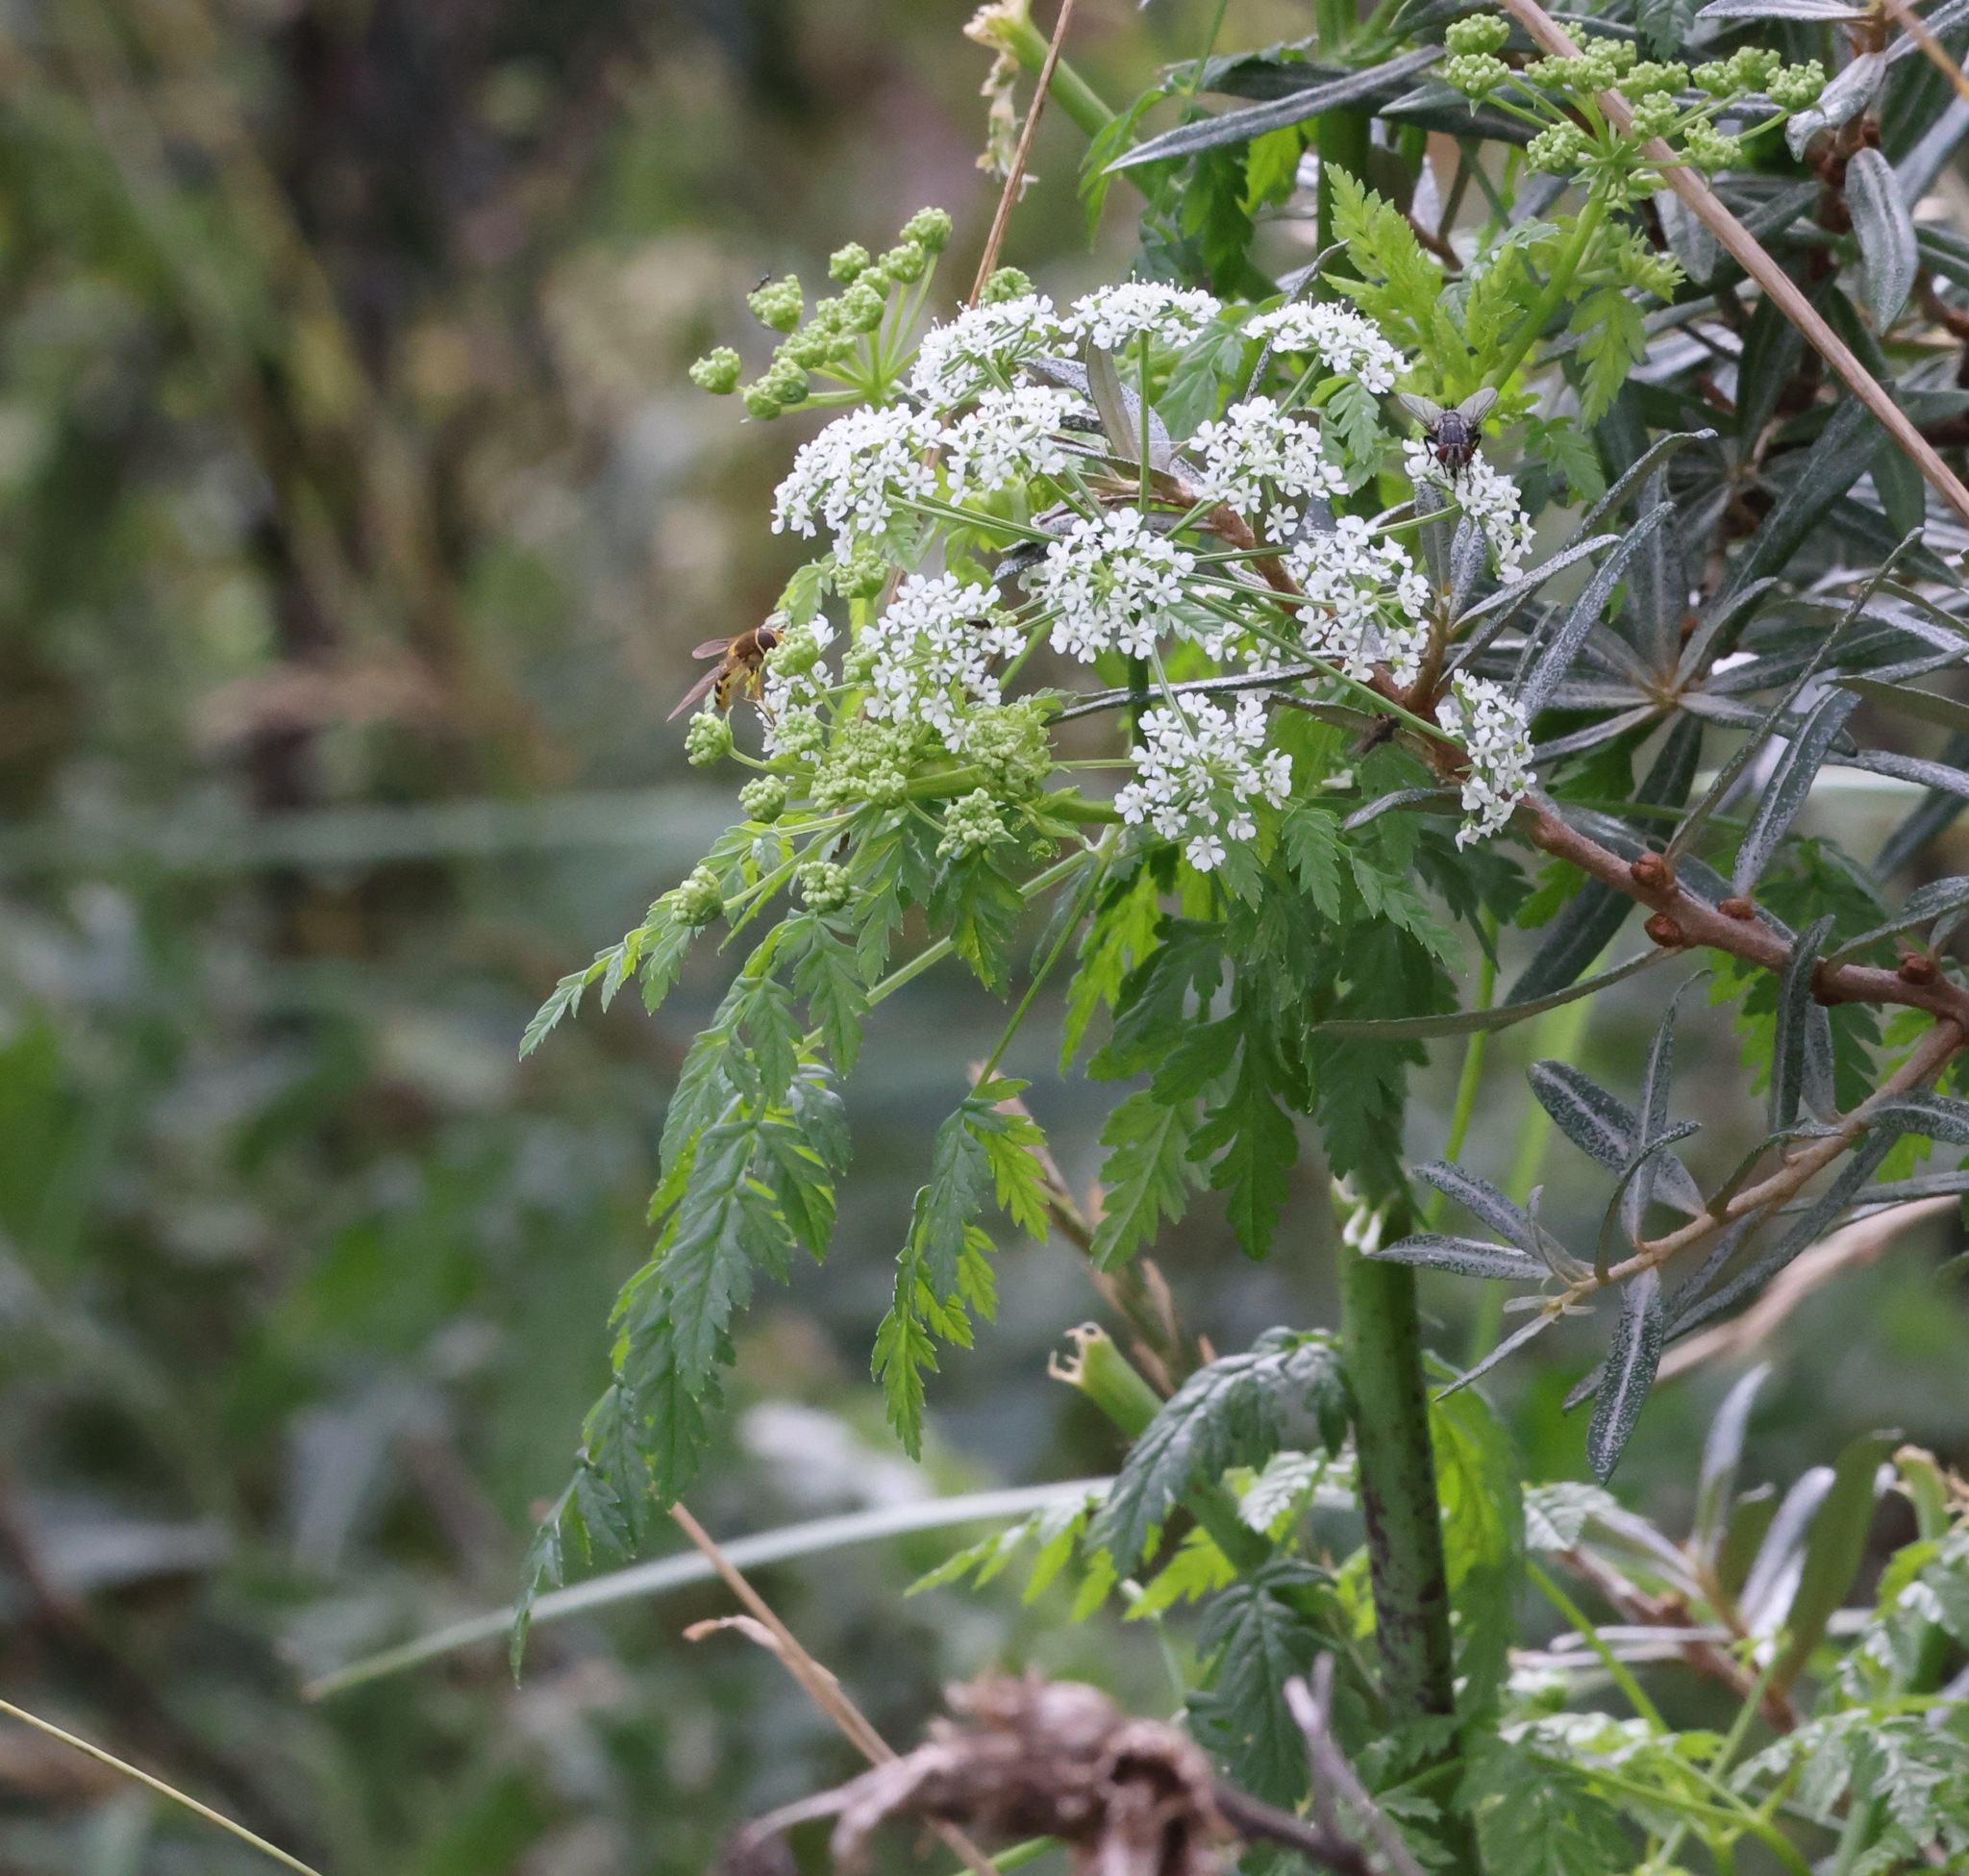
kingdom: Plantae
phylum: Tracheophyta
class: Magnoliopsida
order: Apiales
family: Apiaceae
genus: Conium
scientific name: Conium maculatum
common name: Hemlock
